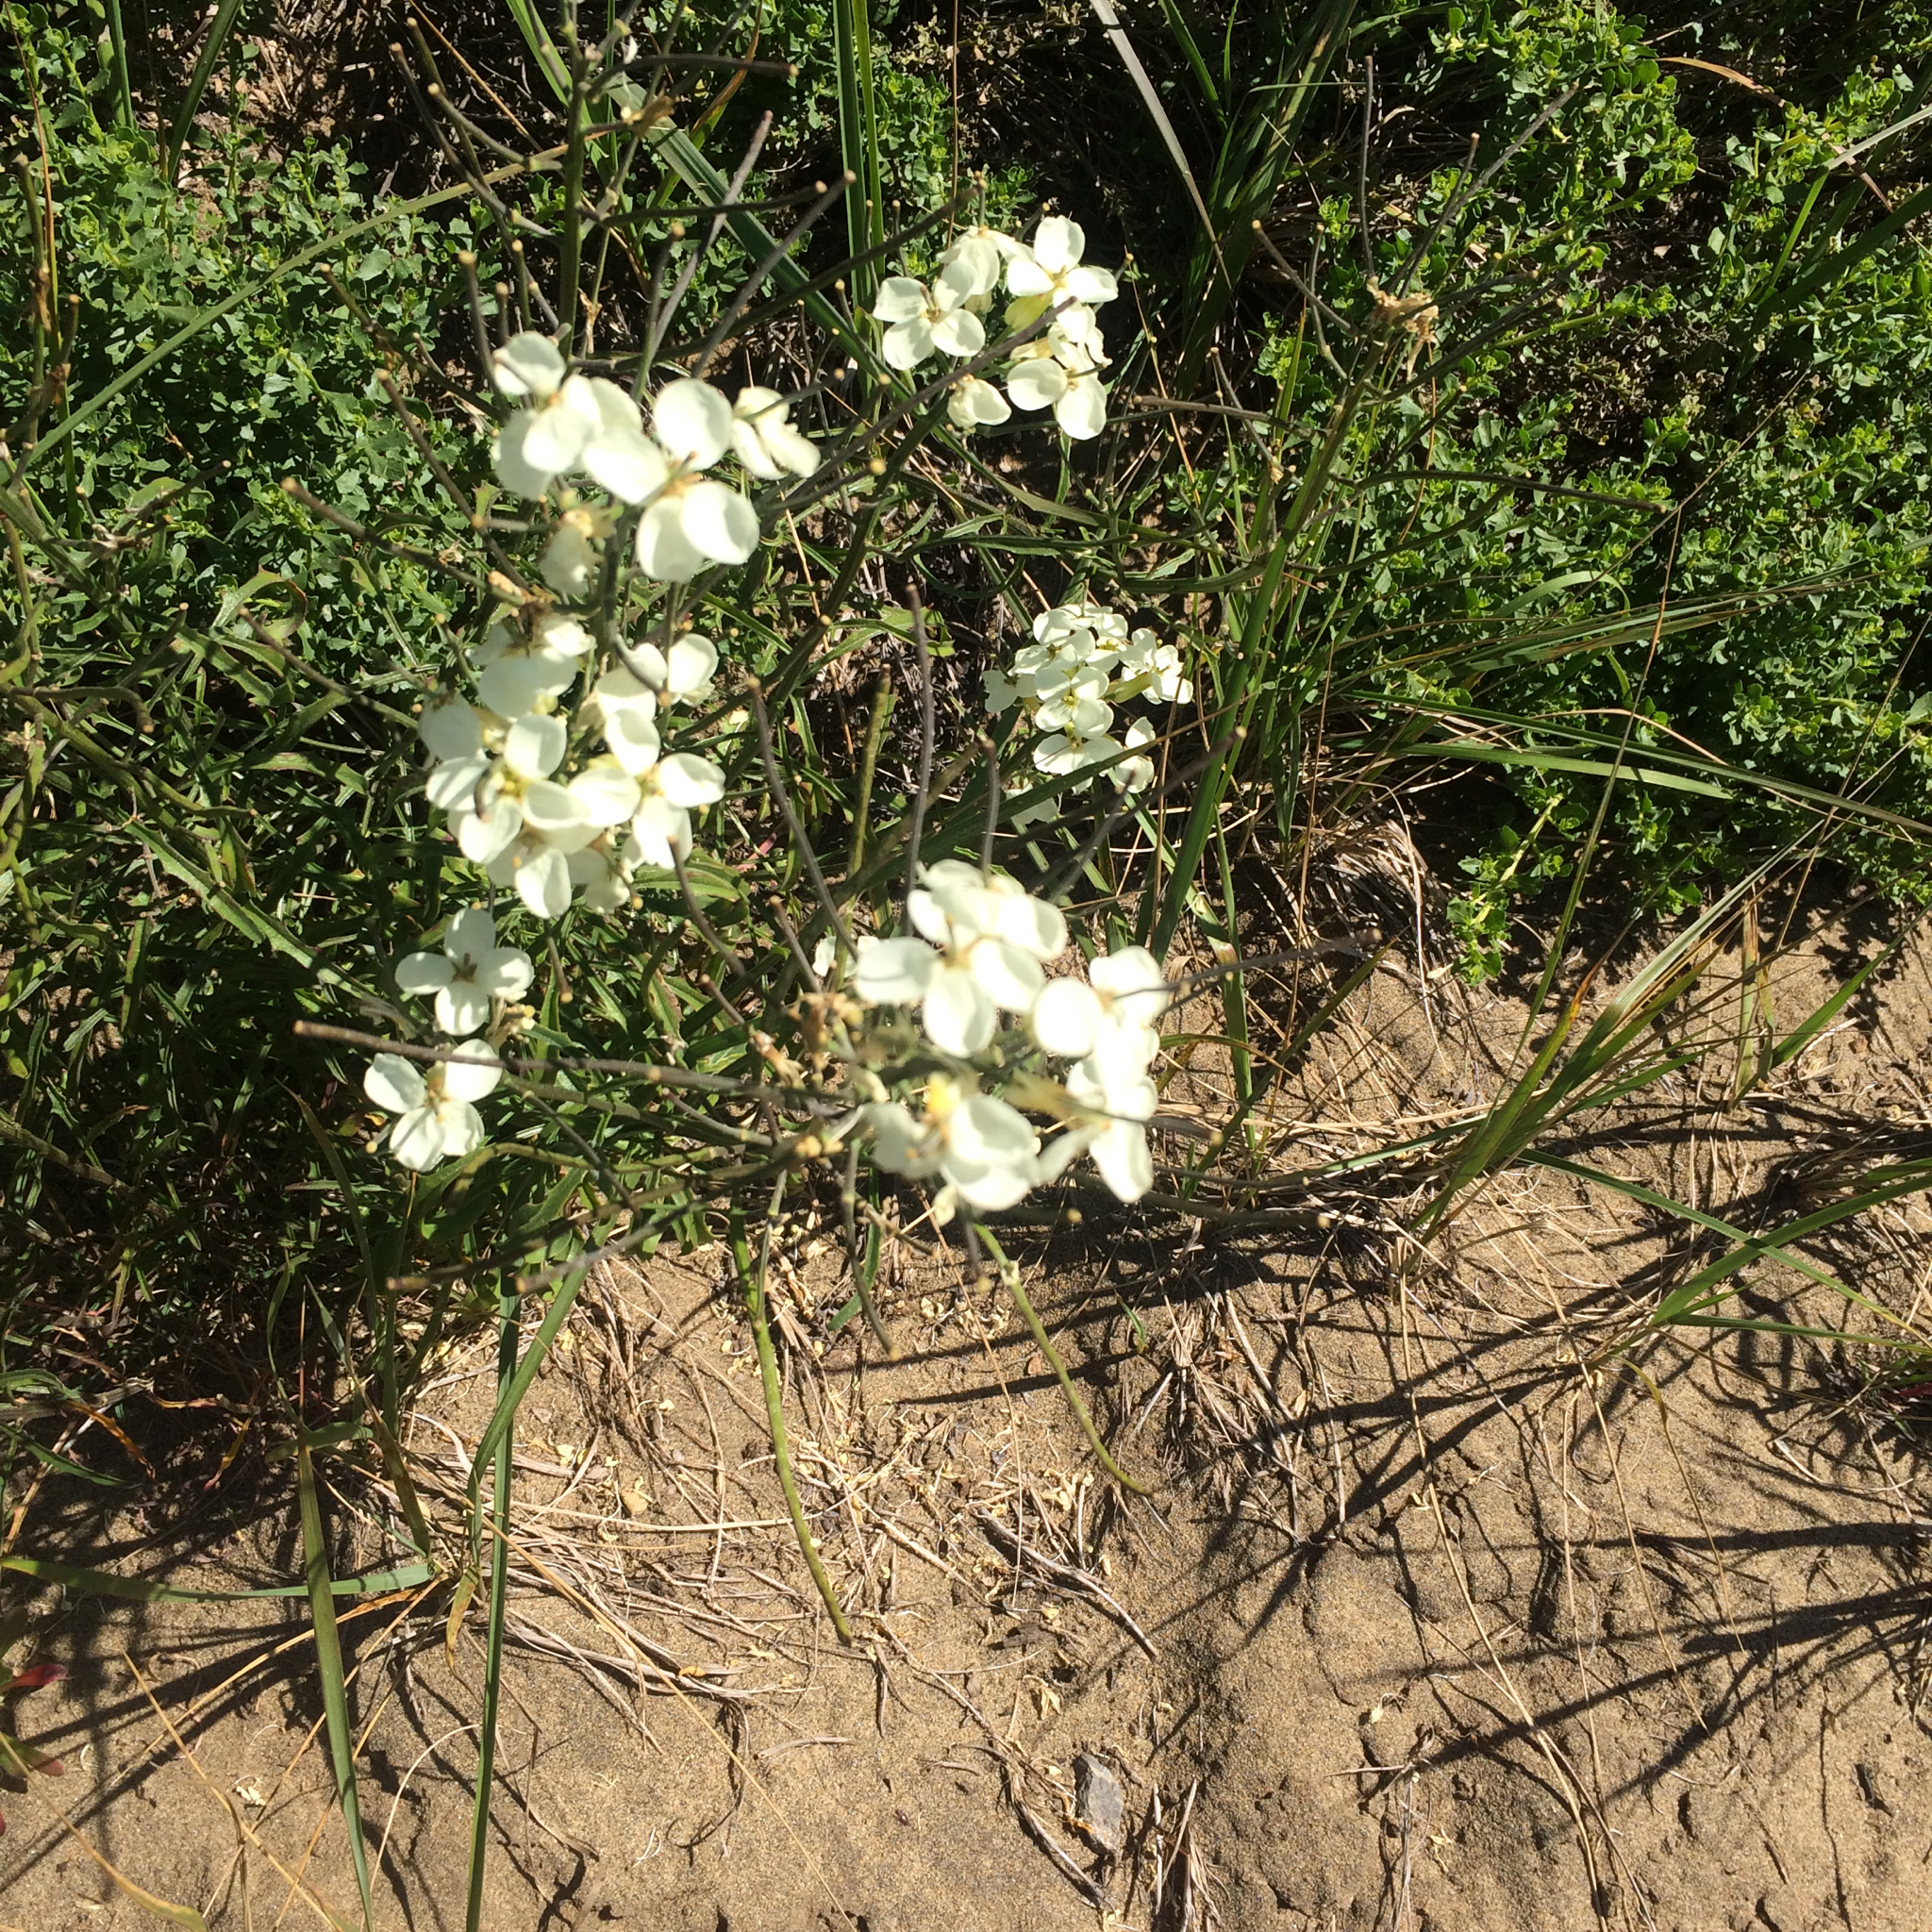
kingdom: Plantae
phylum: Tracheophyta
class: Magnoliopsida
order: Brassicales
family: Brassicaceae
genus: Erysimum
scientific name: Erysimum franciscanum
